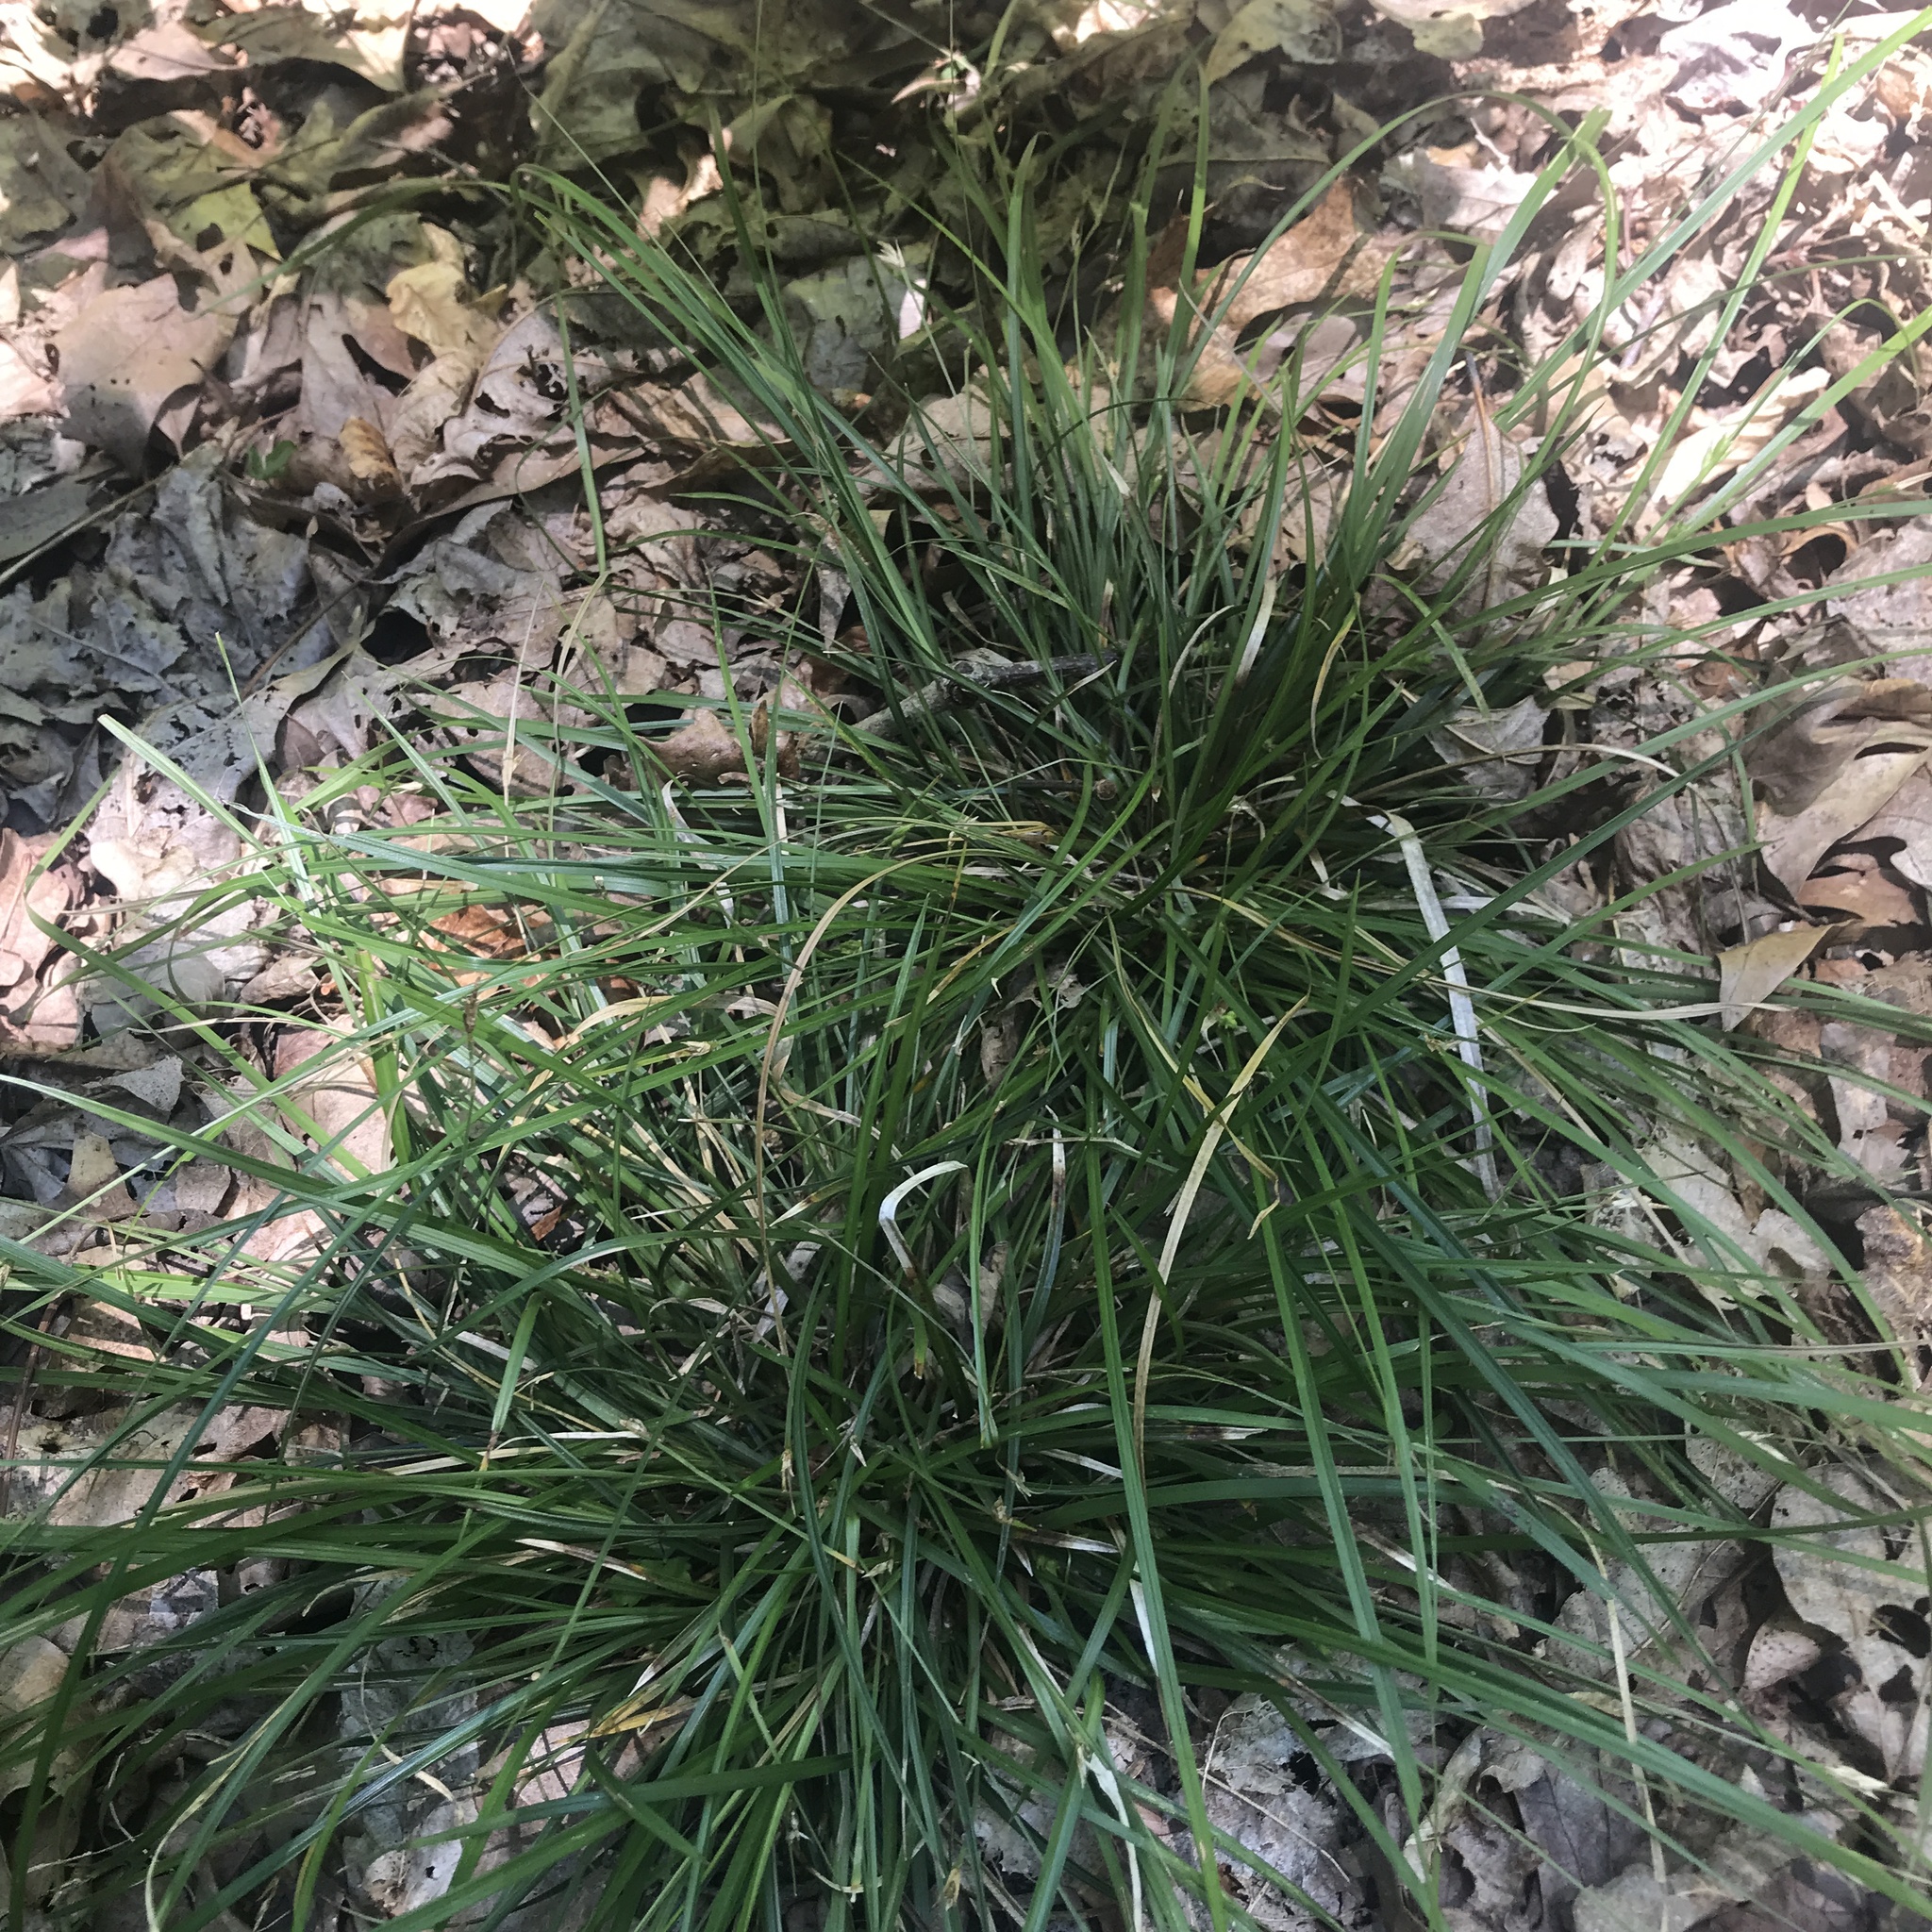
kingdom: Plantae
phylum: Tracheophyta
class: Liliopsida
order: Poales
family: Cyperaceae
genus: Carex
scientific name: Carex jamesii
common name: Grass sedge
